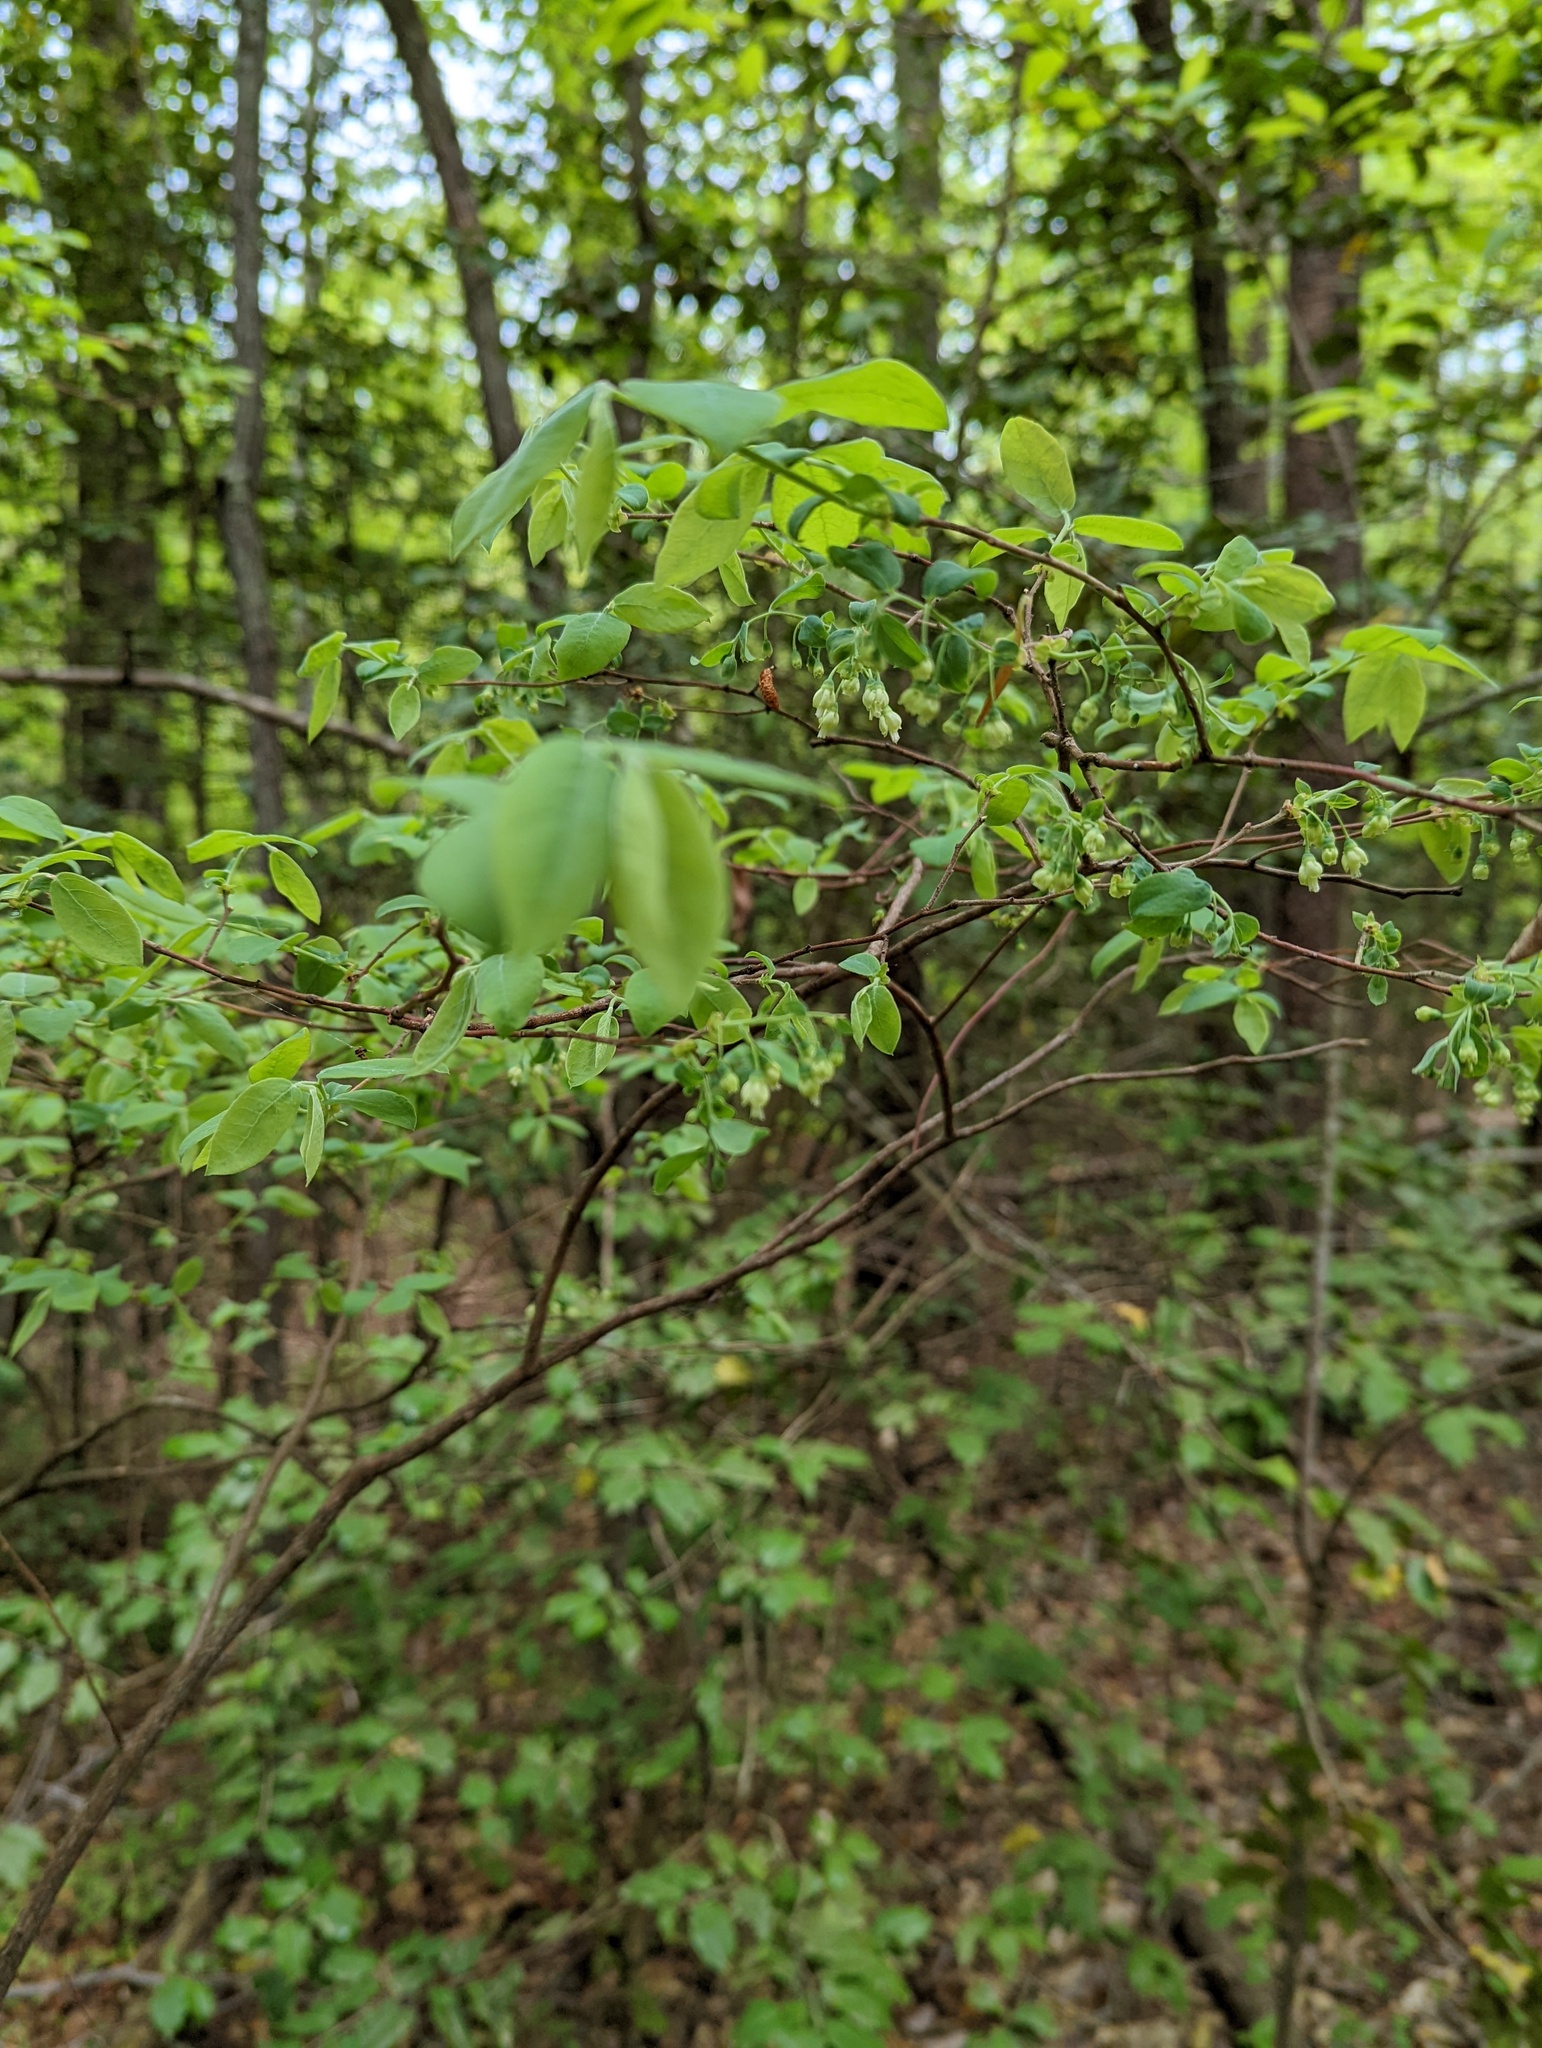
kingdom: Plantae
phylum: Tracheophyta
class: Magnoliopsida
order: Ericales
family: Ericaceae
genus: Vaccinium
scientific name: Vaccinium stamineum
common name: Deerberry
